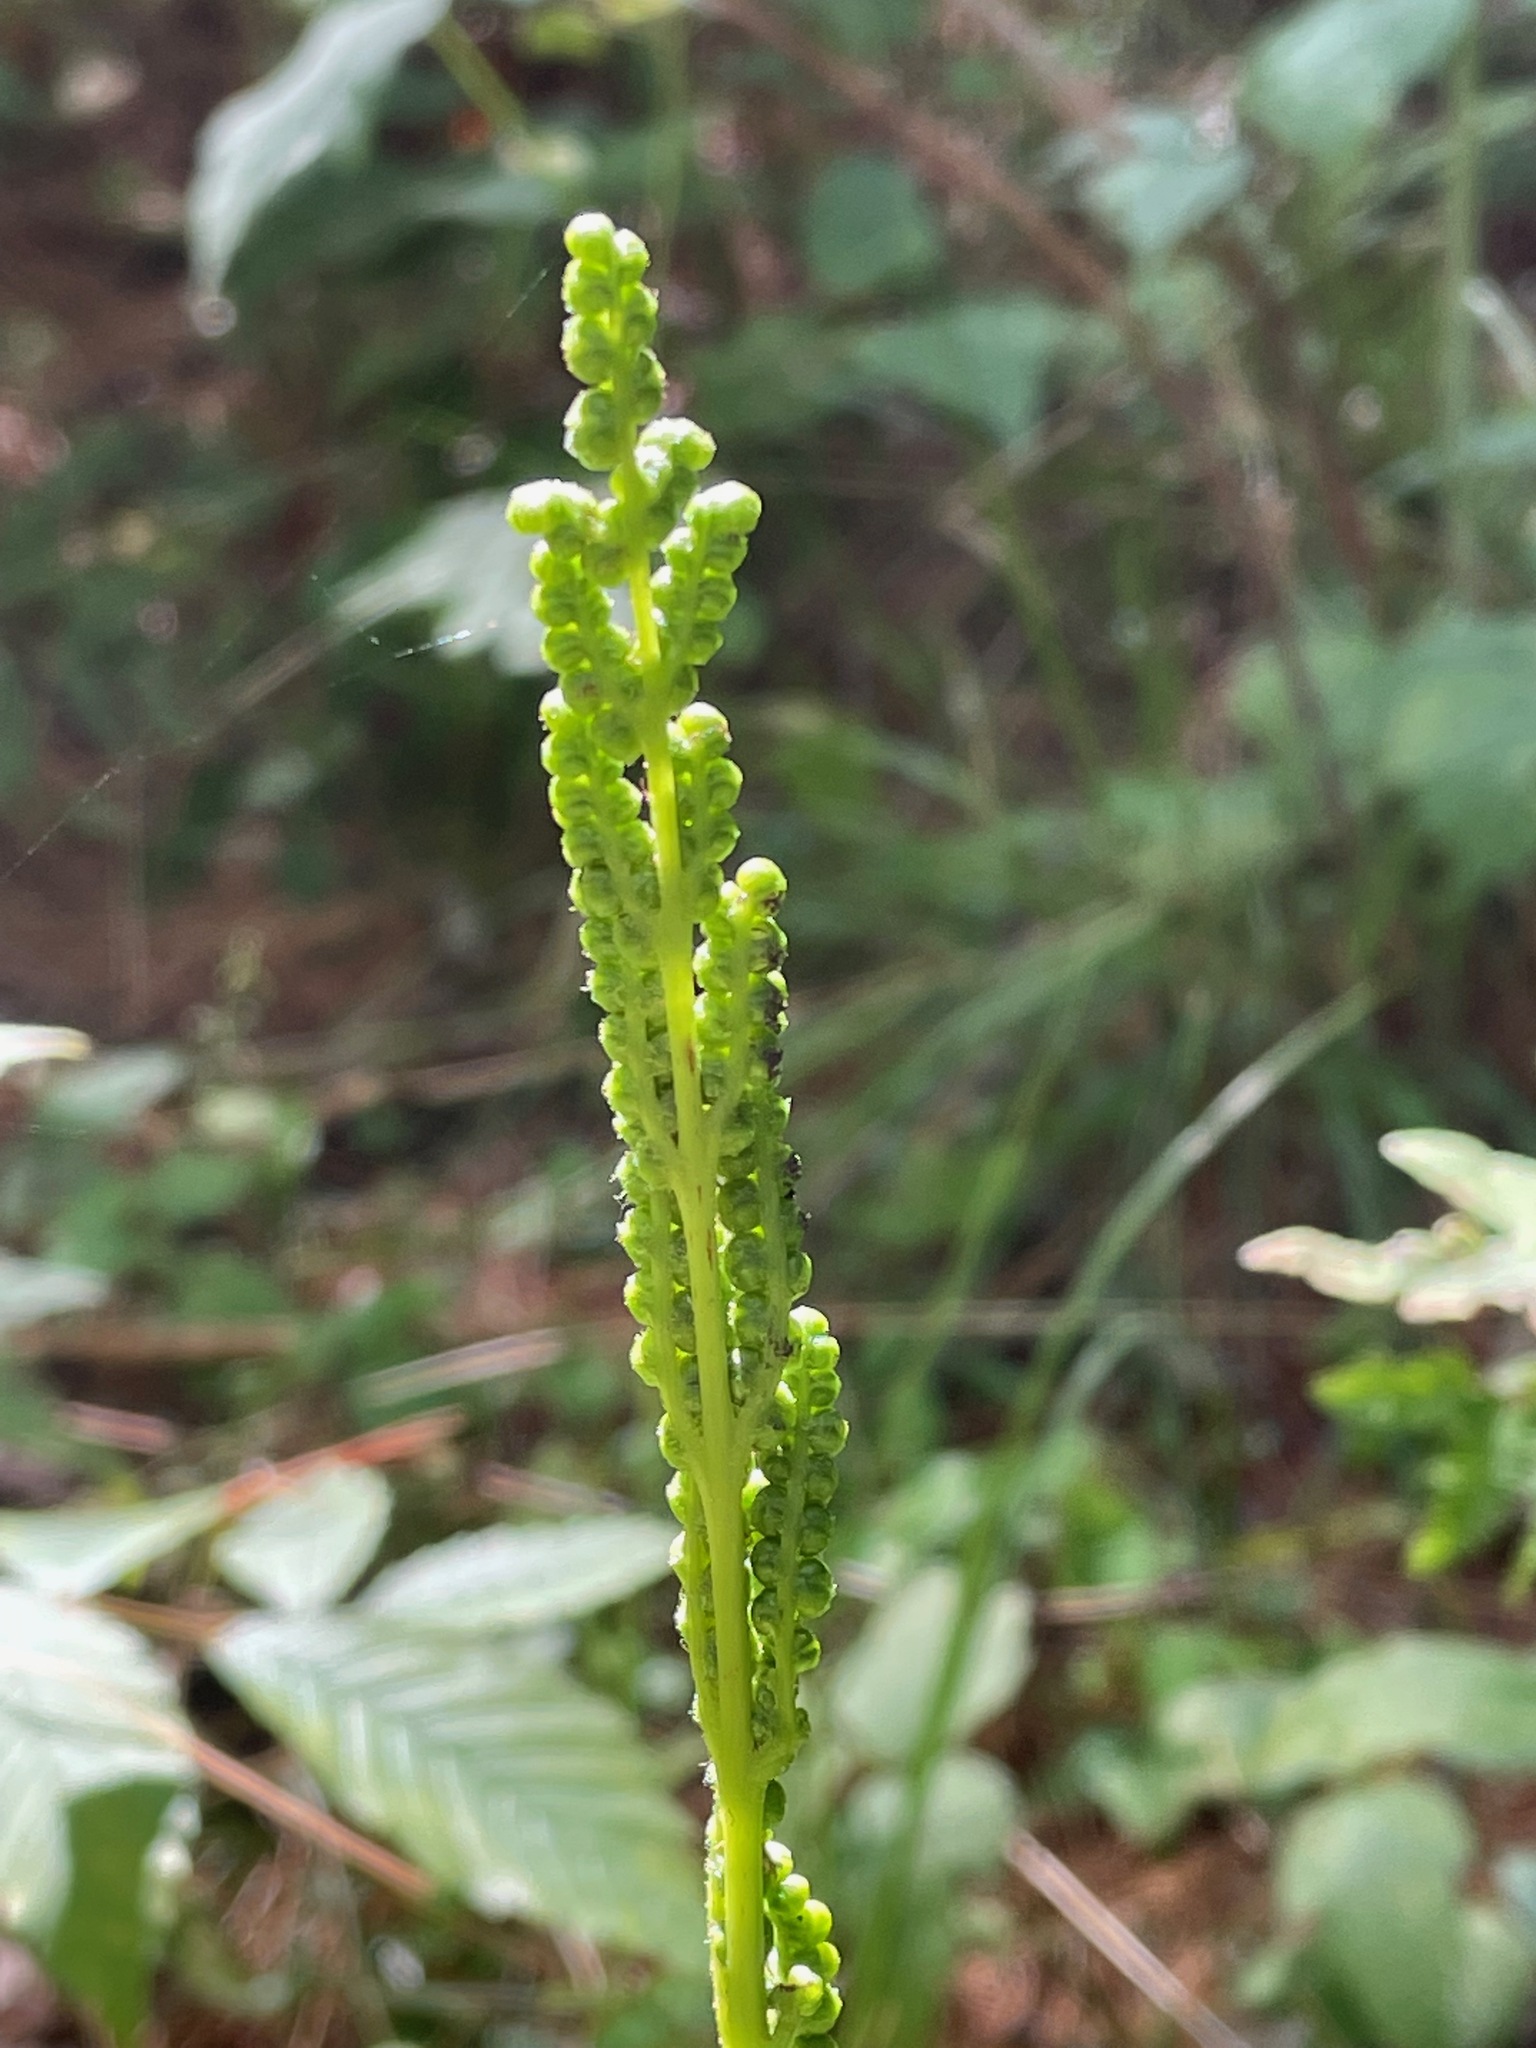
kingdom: Plantae
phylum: Tracheophyta
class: Polypodiopsida
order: Polypodiales
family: Onocleaceae
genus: Onoclea
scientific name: Onoclea sensibilis
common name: Sensitive fern
